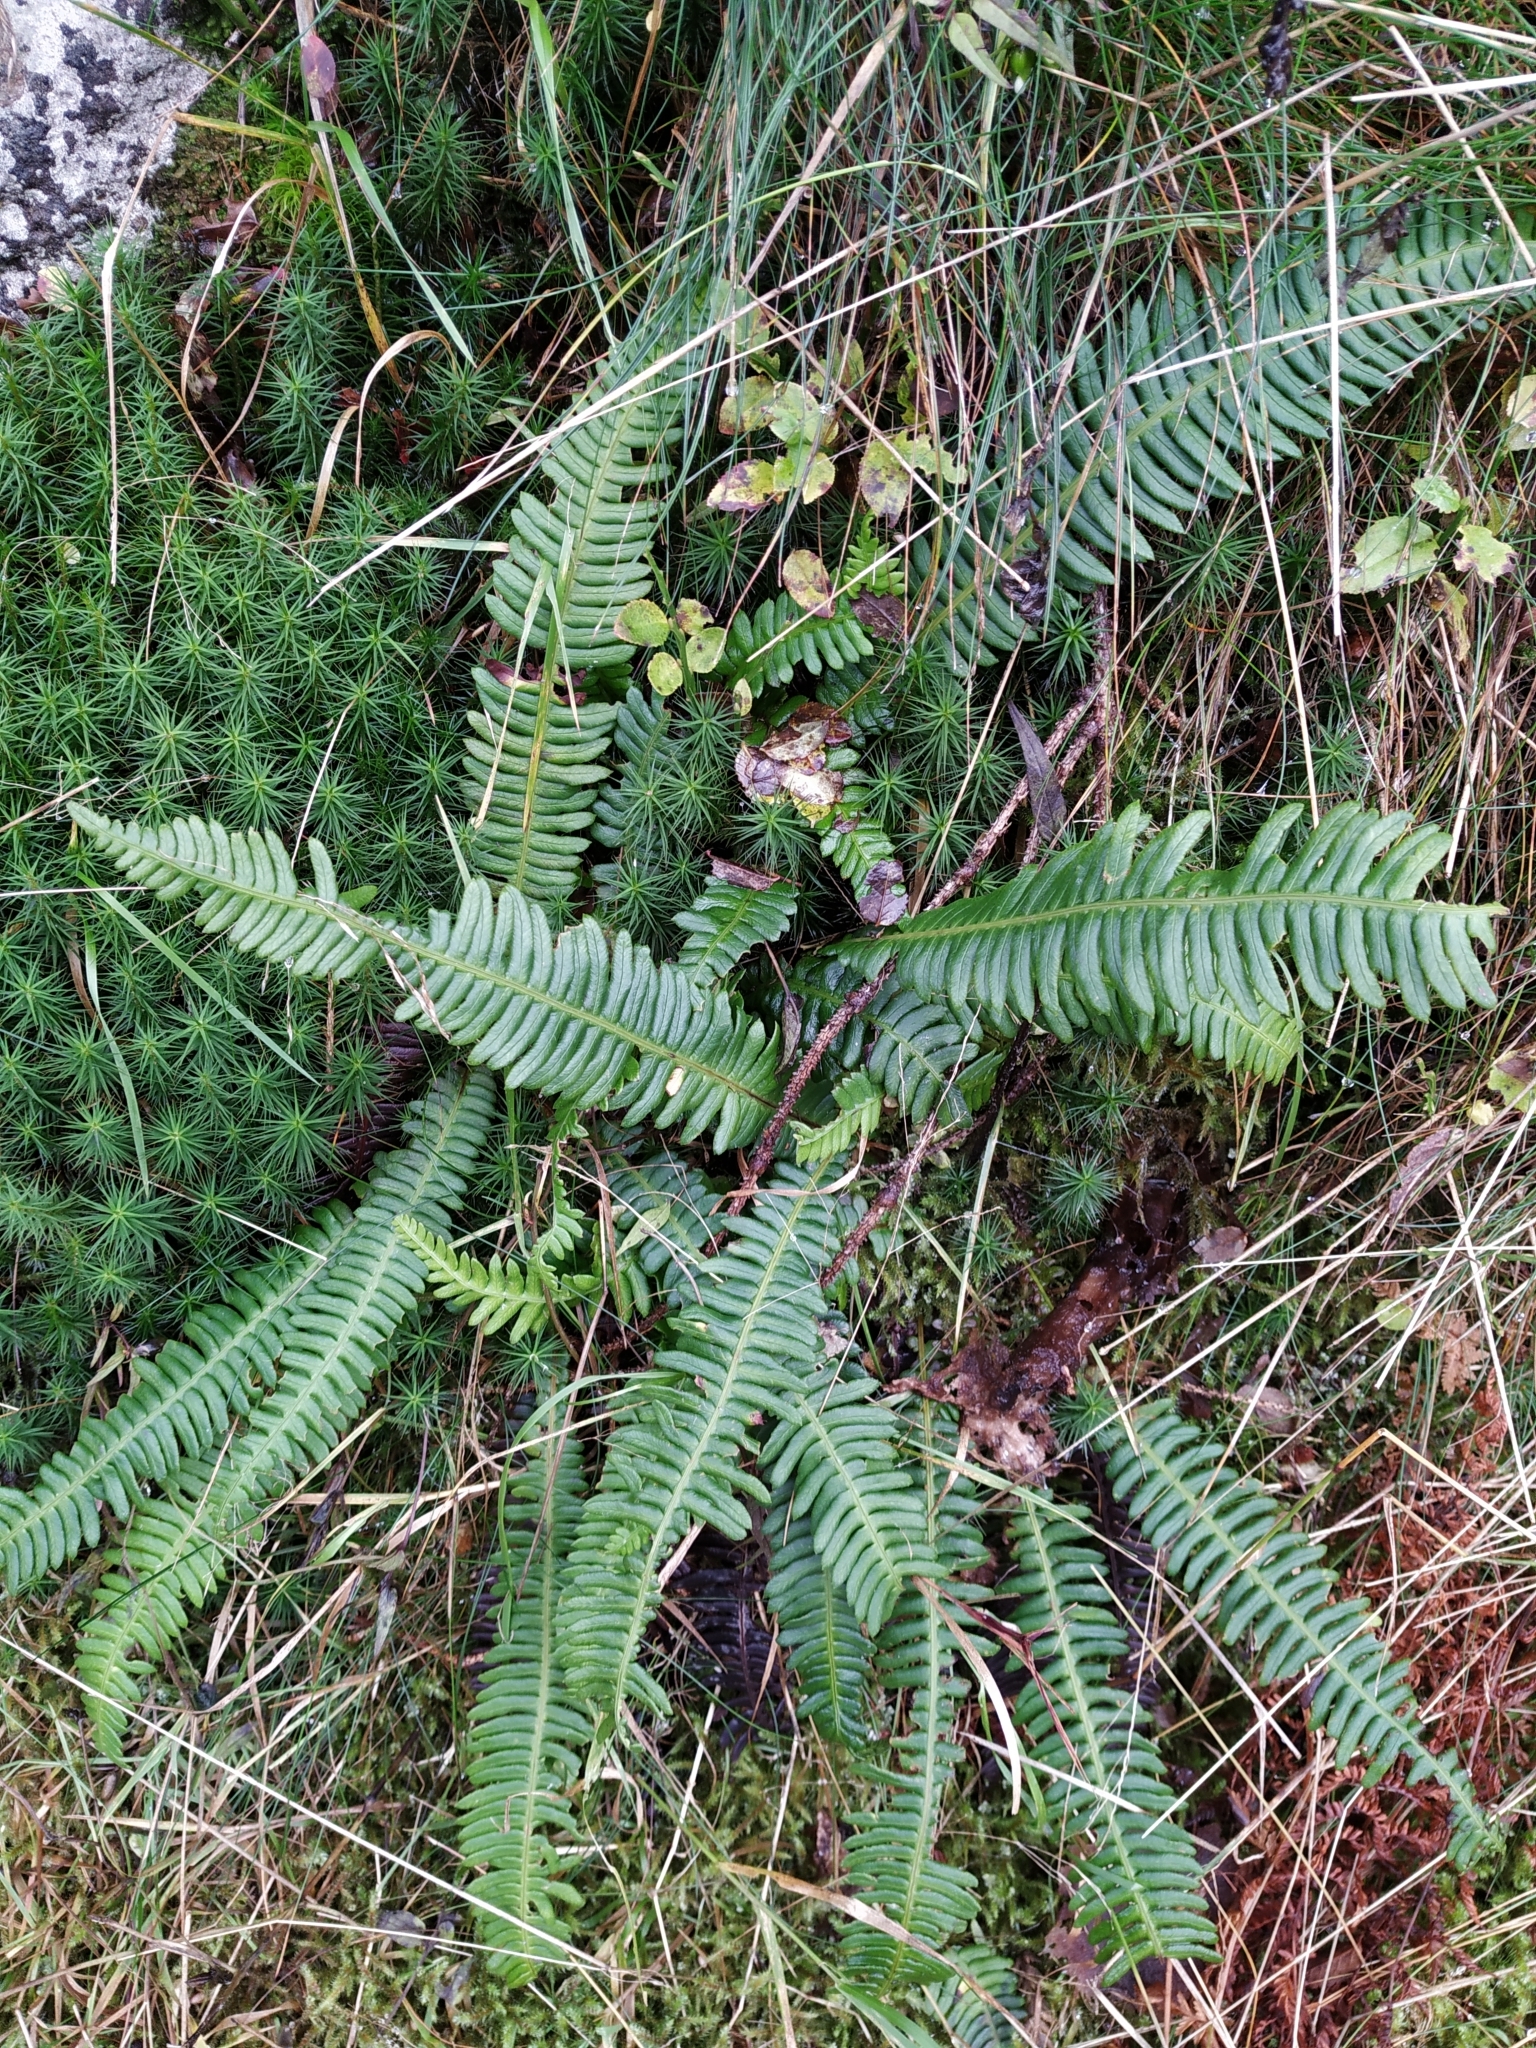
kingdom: Plantae
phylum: Tracheophyta
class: Polypodiopsida
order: Polypodiales
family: Blechnaceae
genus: Struthiopteris
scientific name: Struthiopteris spicant
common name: Deer fern
